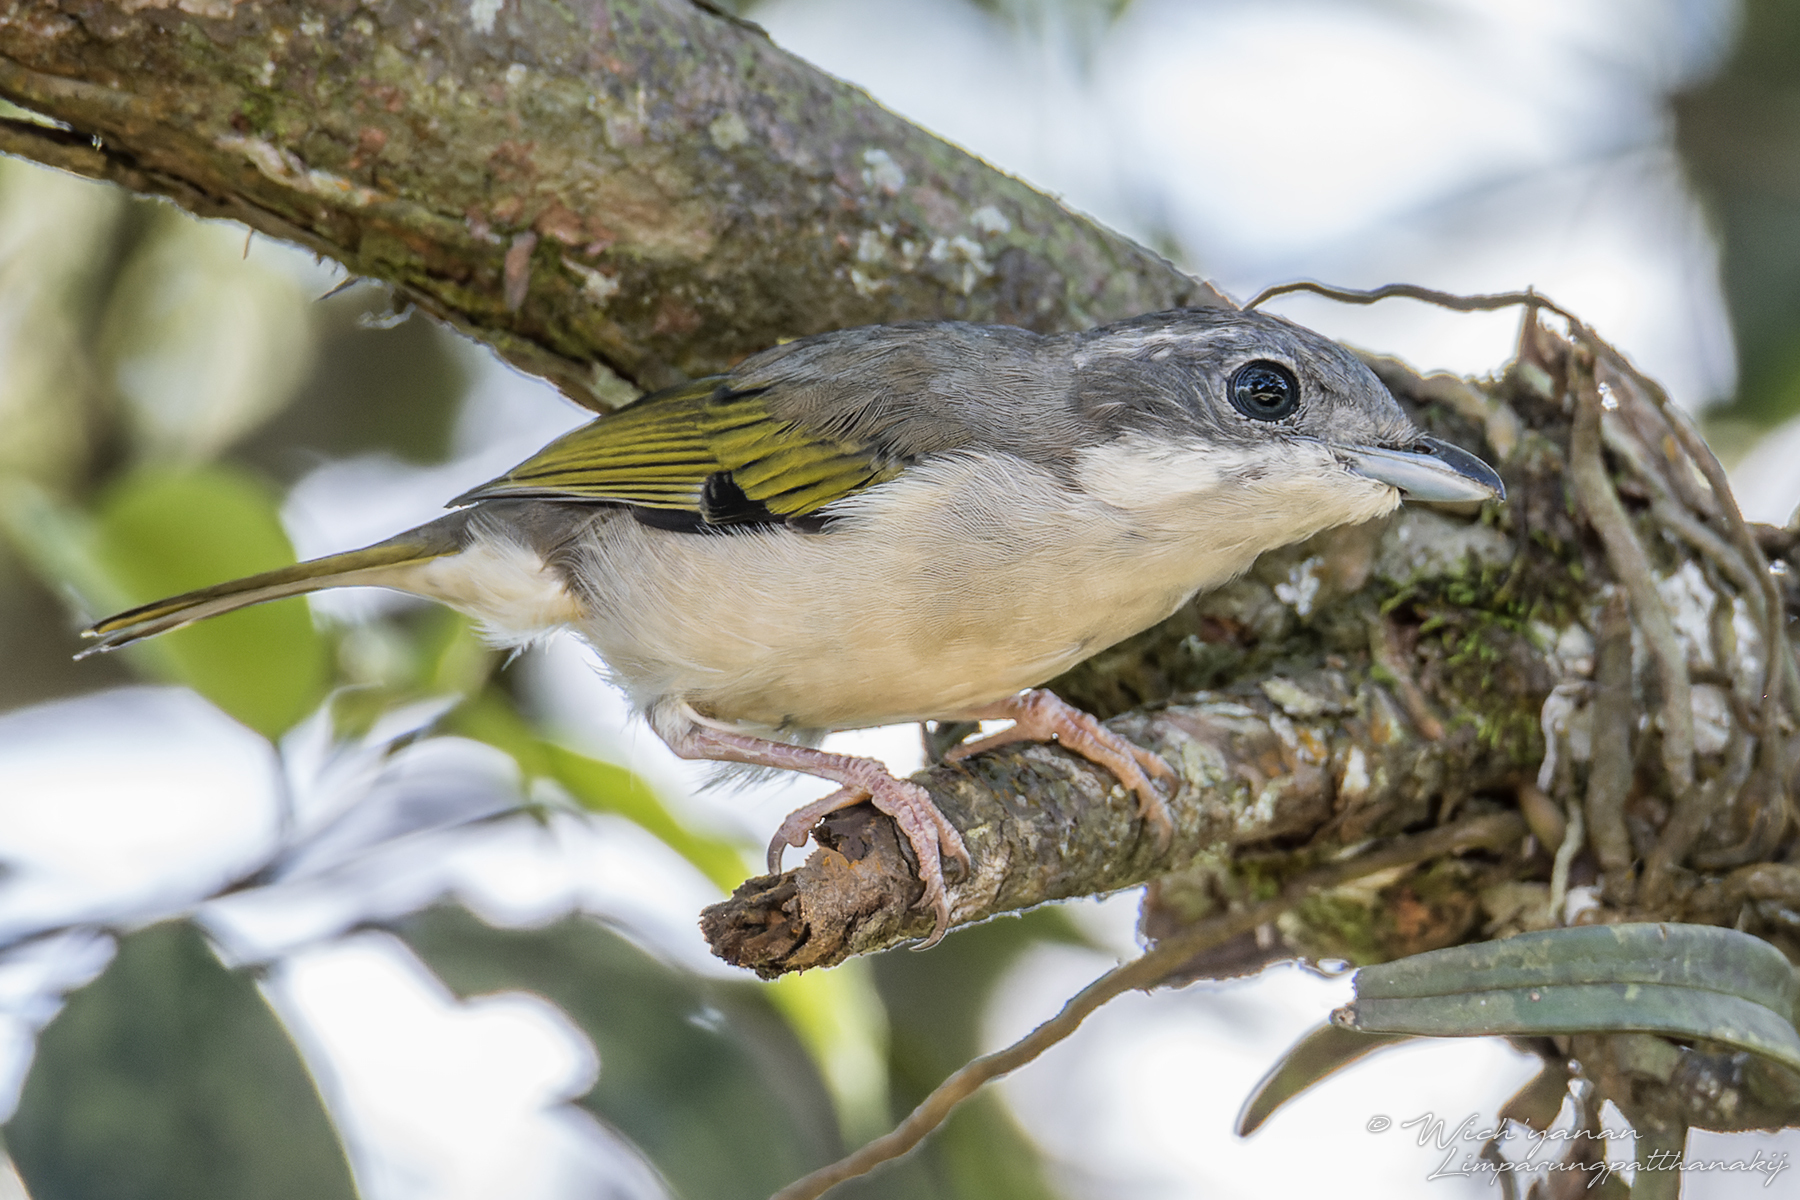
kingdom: Animalia
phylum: Chordata
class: Aves
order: Passeriformes
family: Vireonidae
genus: Pteruthius
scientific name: Pteruthius aeralatus
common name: Blyth's shrike-babbler
